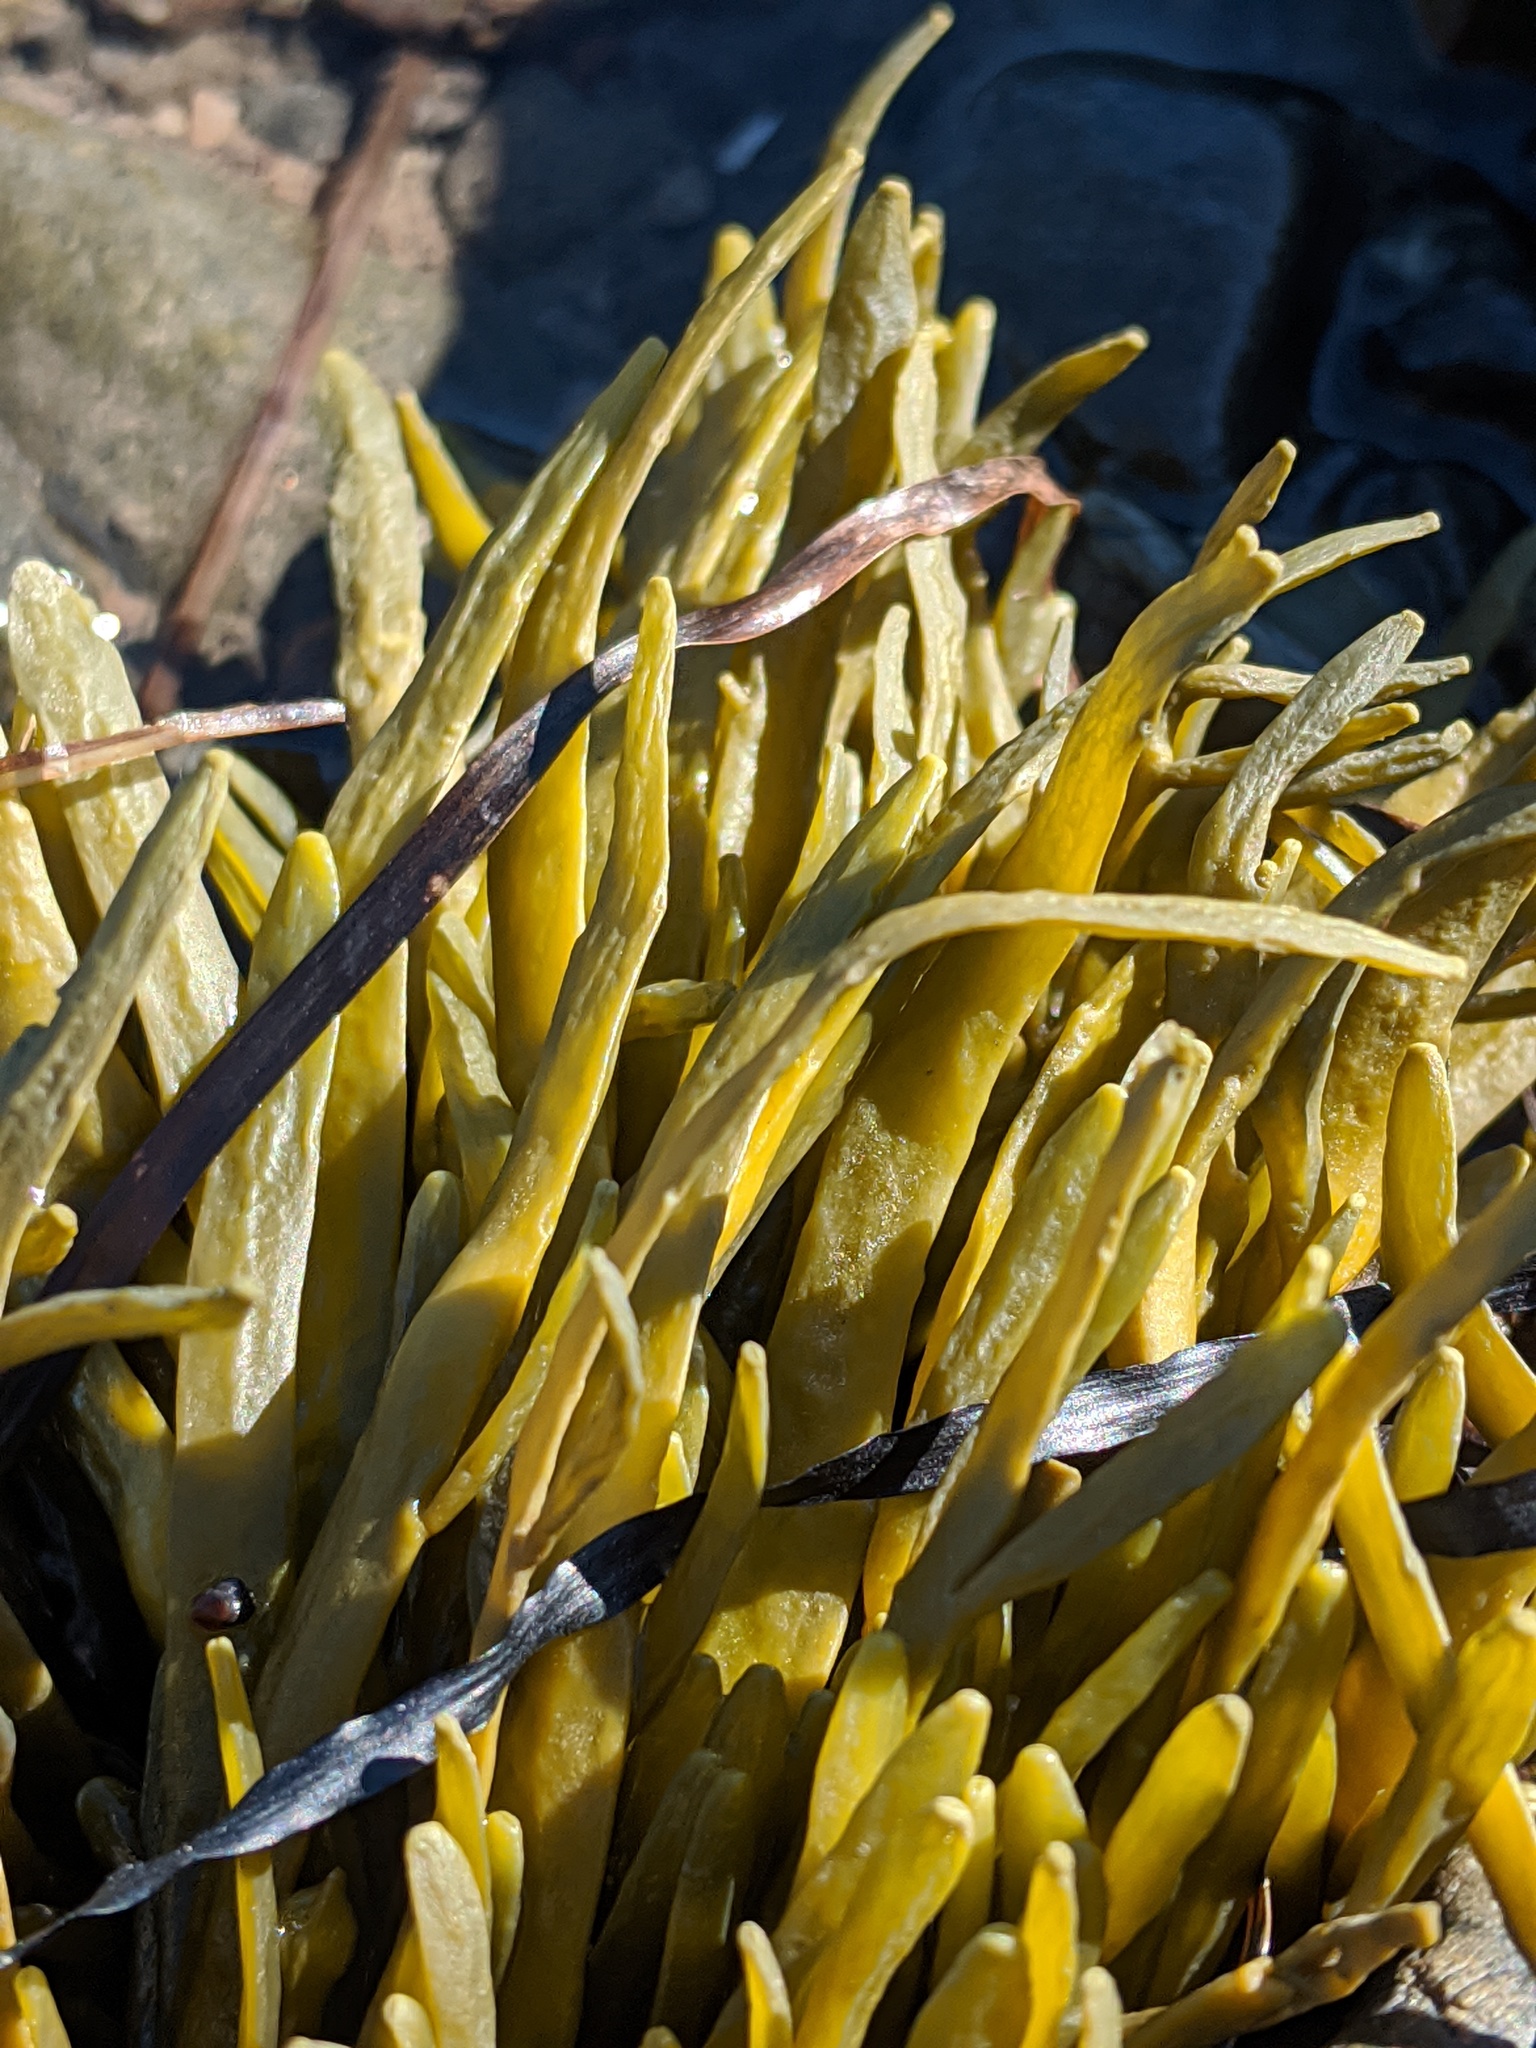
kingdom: Chromista
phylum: Ochrophyta
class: Phaeophyceae
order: Fucales
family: Fucaceae
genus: Ascophyllum
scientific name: Ascophyllum nodosum
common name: Knotted wrack
